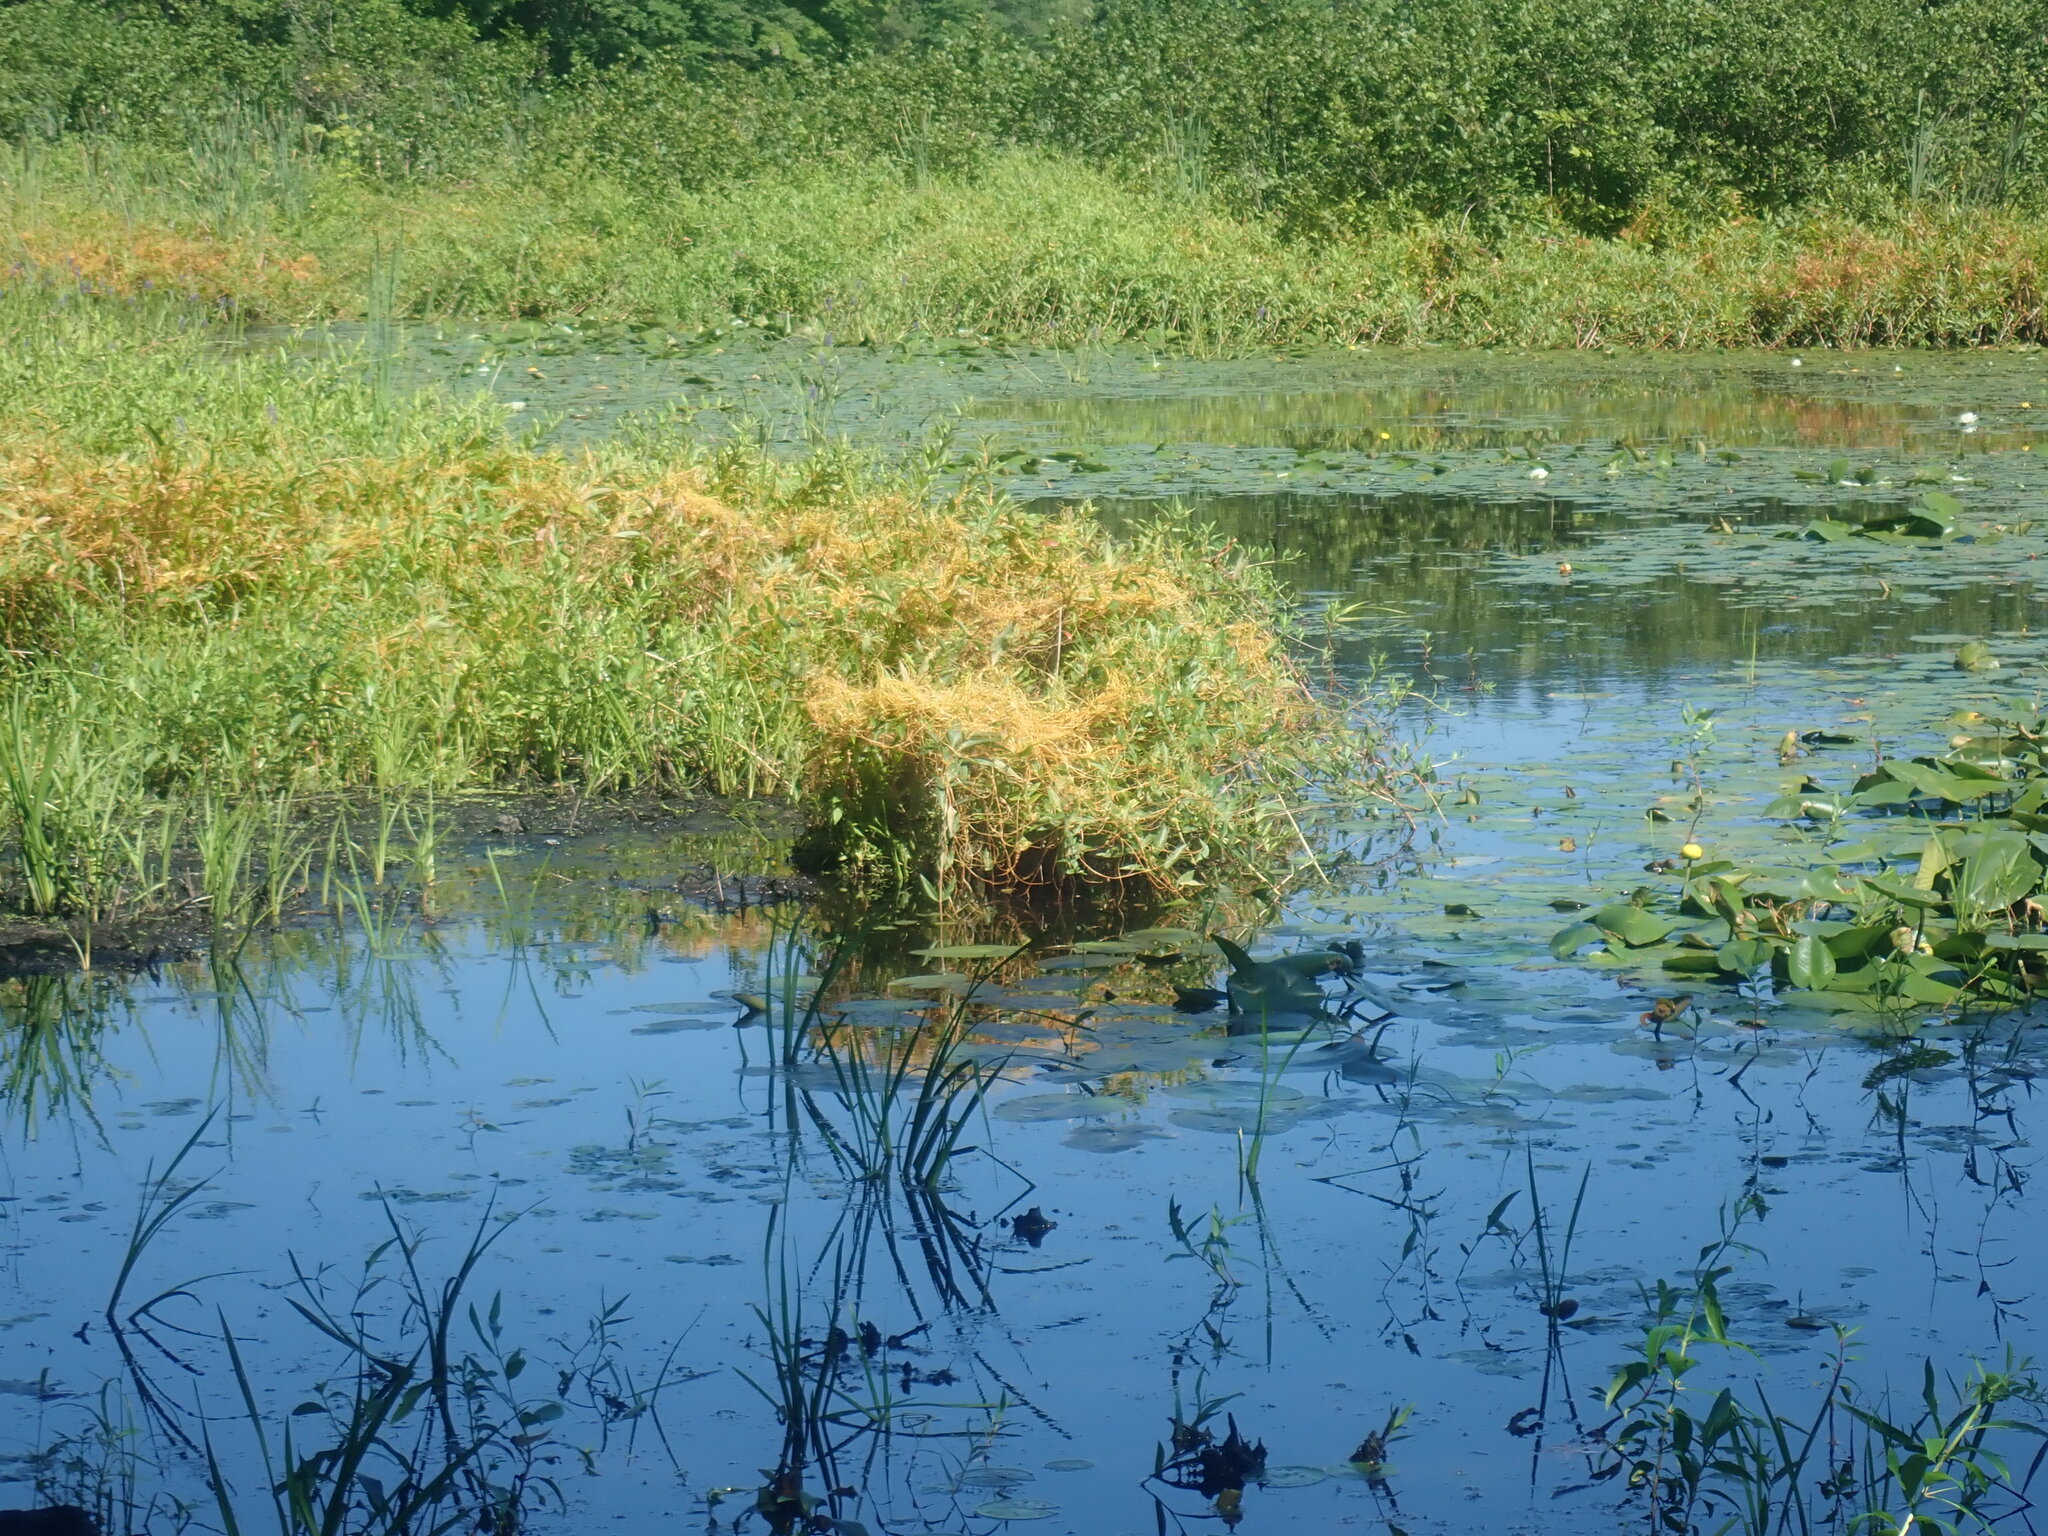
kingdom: Plantae
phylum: Tracheophyta
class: Magnoliopsida
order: Solanales
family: Convolvulaceae
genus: Cuscuta
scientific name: Cuscuta
